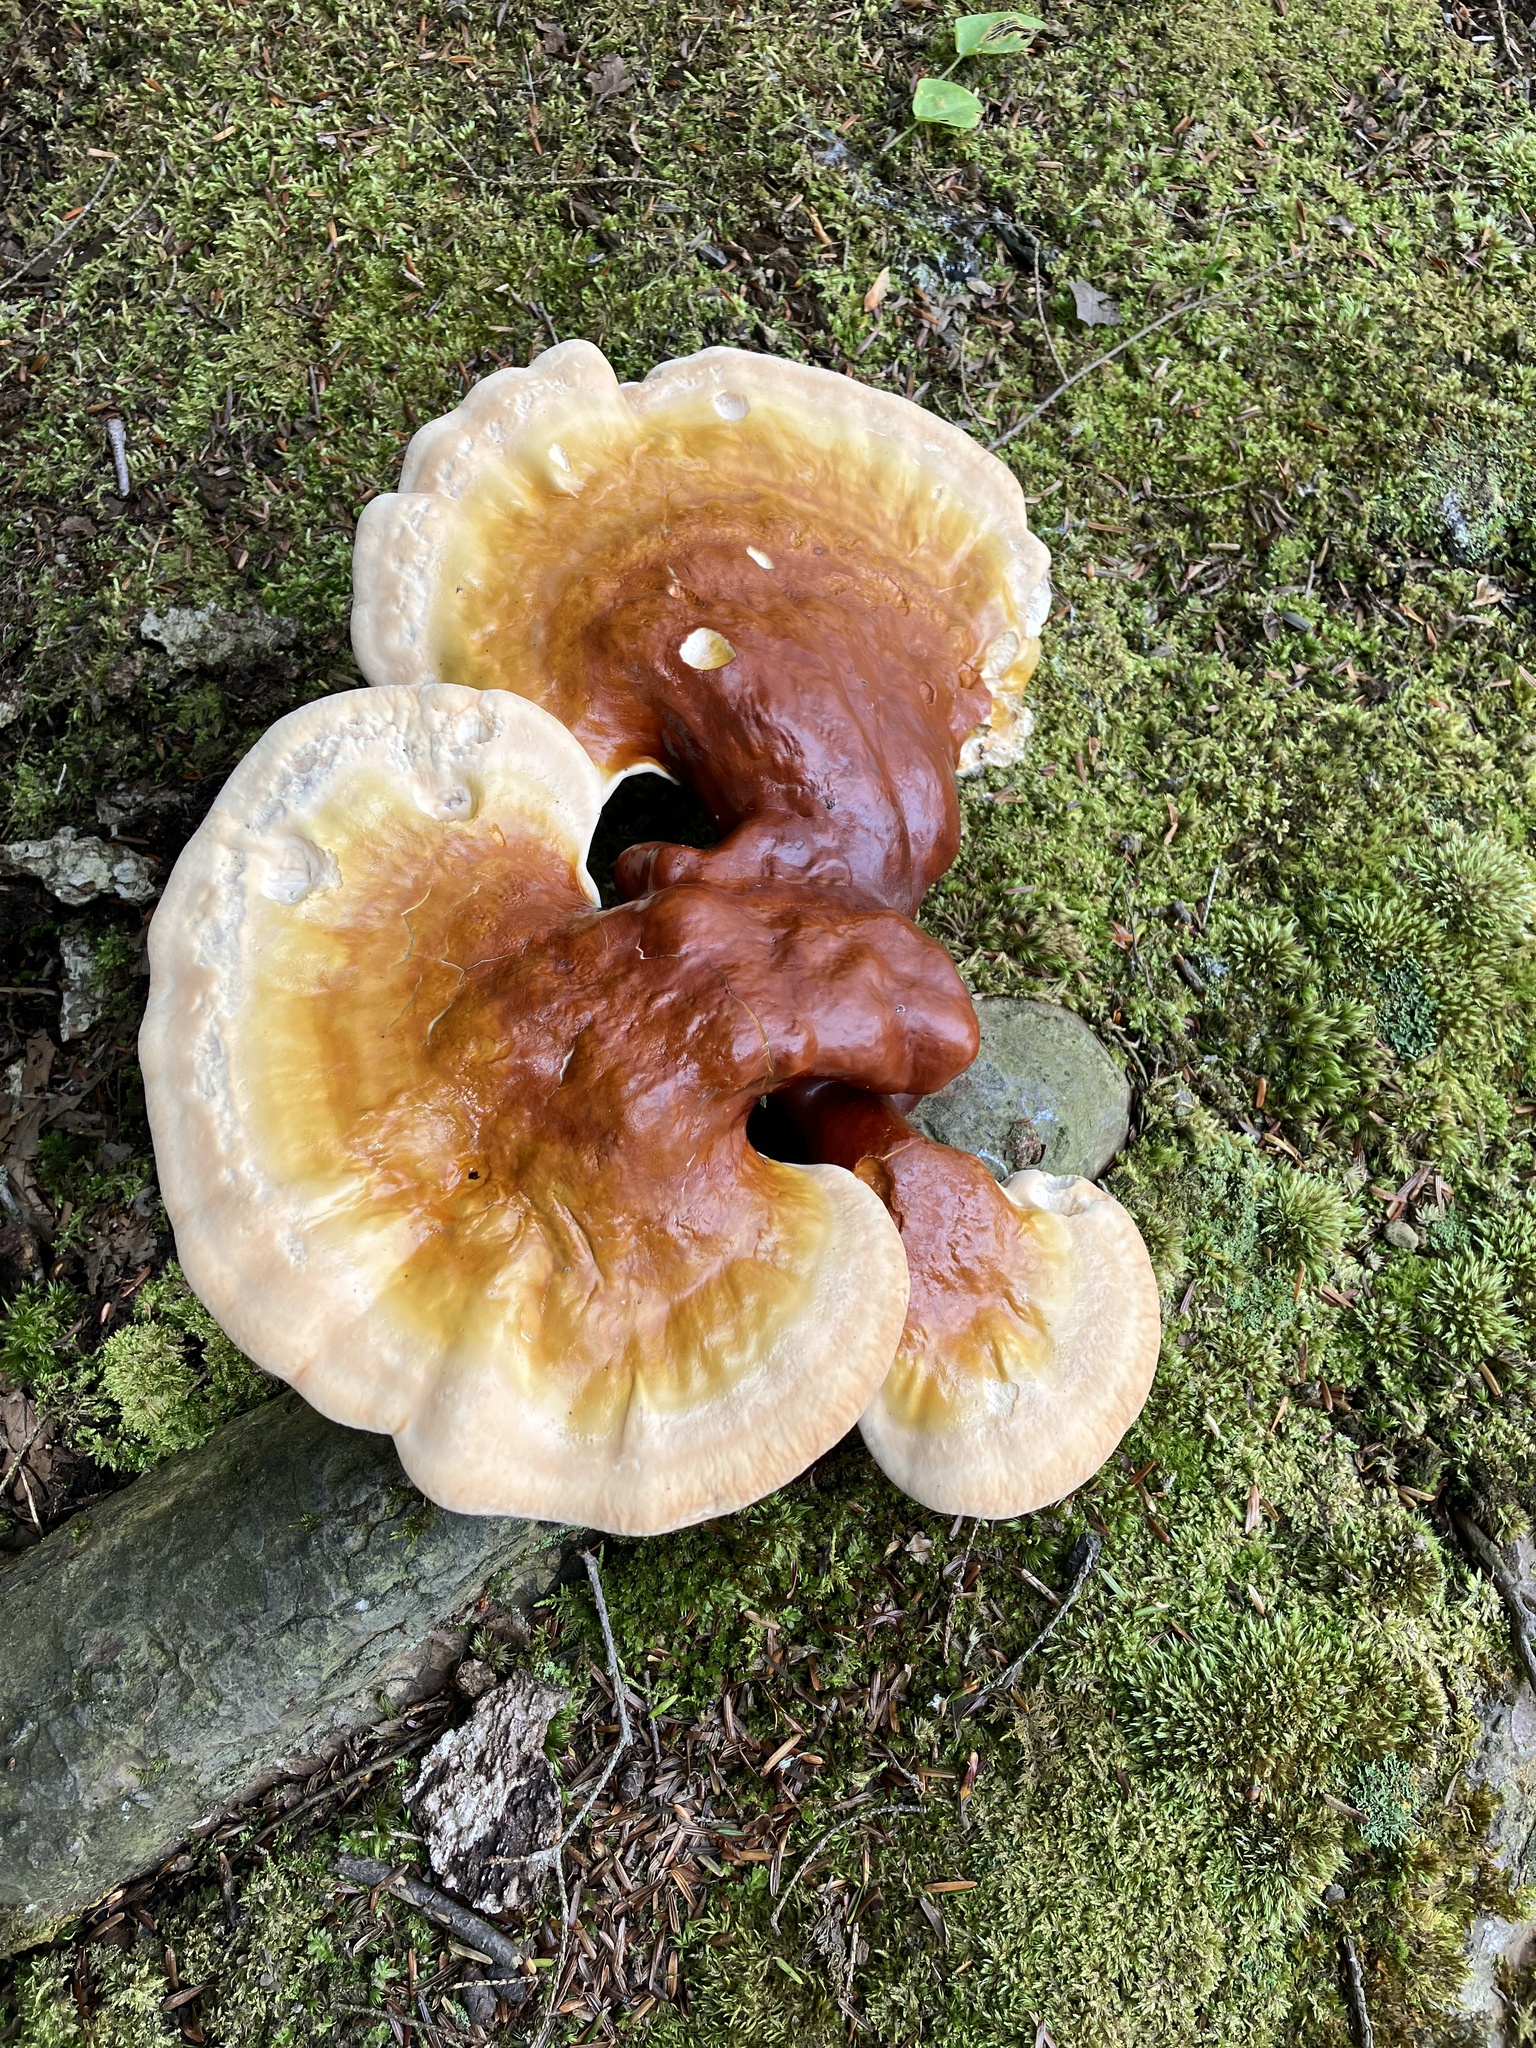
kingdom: Fungi
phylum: Basidiomycota
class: Agaricomycetes
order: Polyporales
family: Polyporaceae
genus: Ganoderma
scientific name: Ganoderma tsugae
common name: Hemlock varnish shelf
